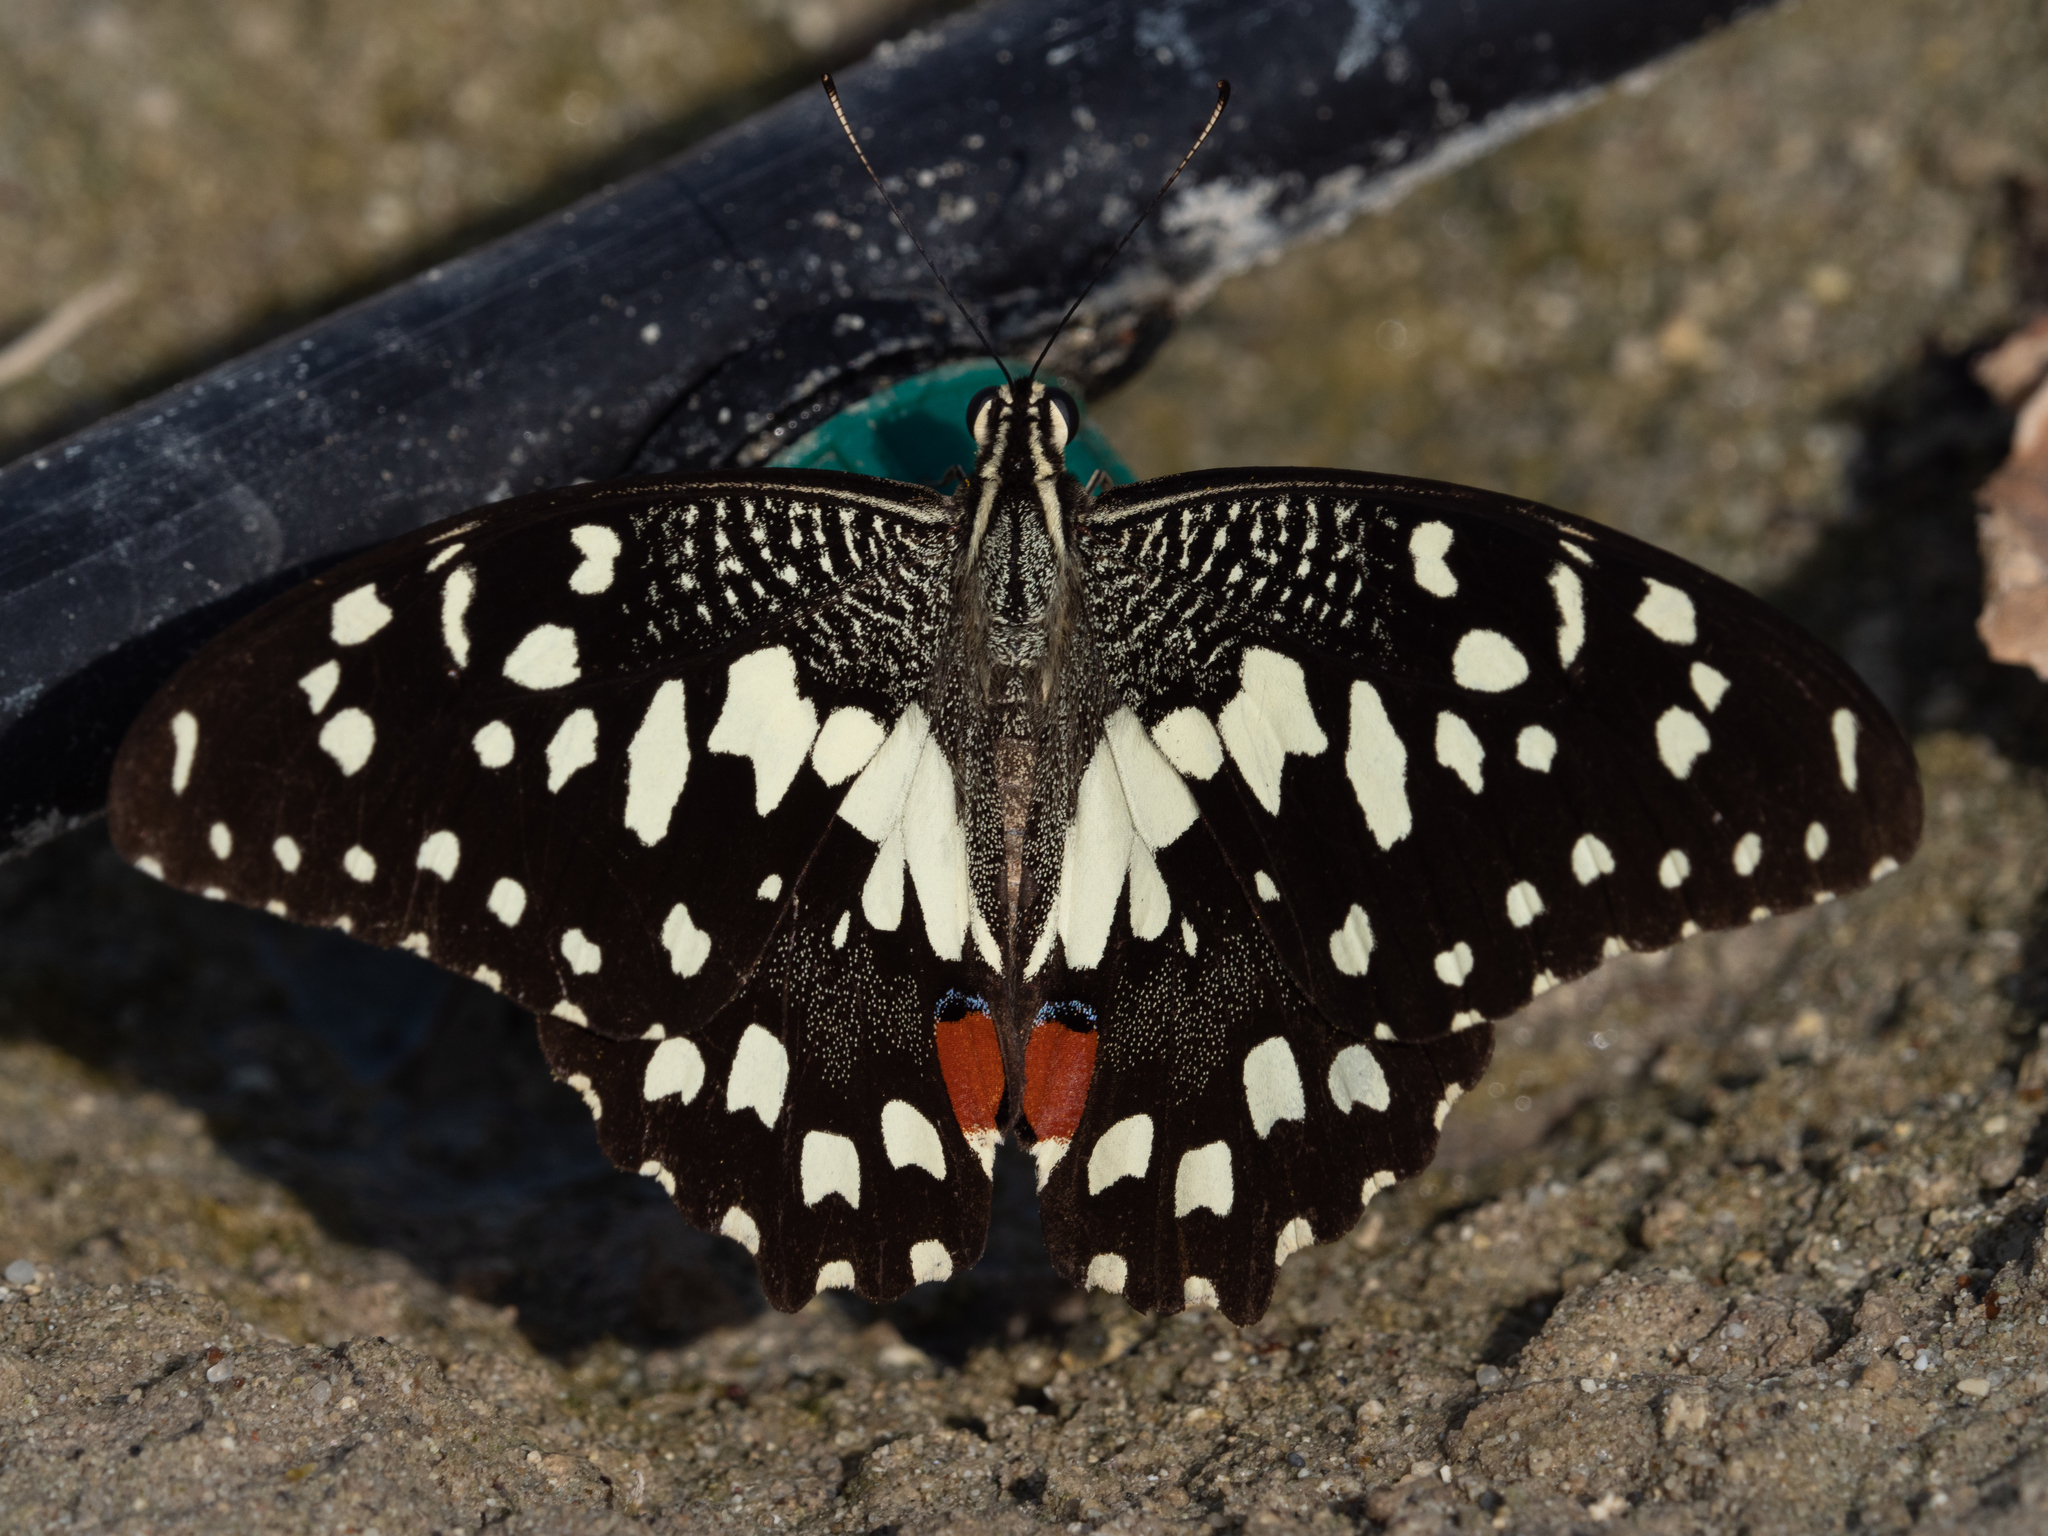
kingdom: Animalia
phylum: Arthropoda
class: Insecta
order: Lepidoptera
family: Papilionidae
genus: Papilio
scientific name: Papilio demoleus
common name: Lime butterfly
